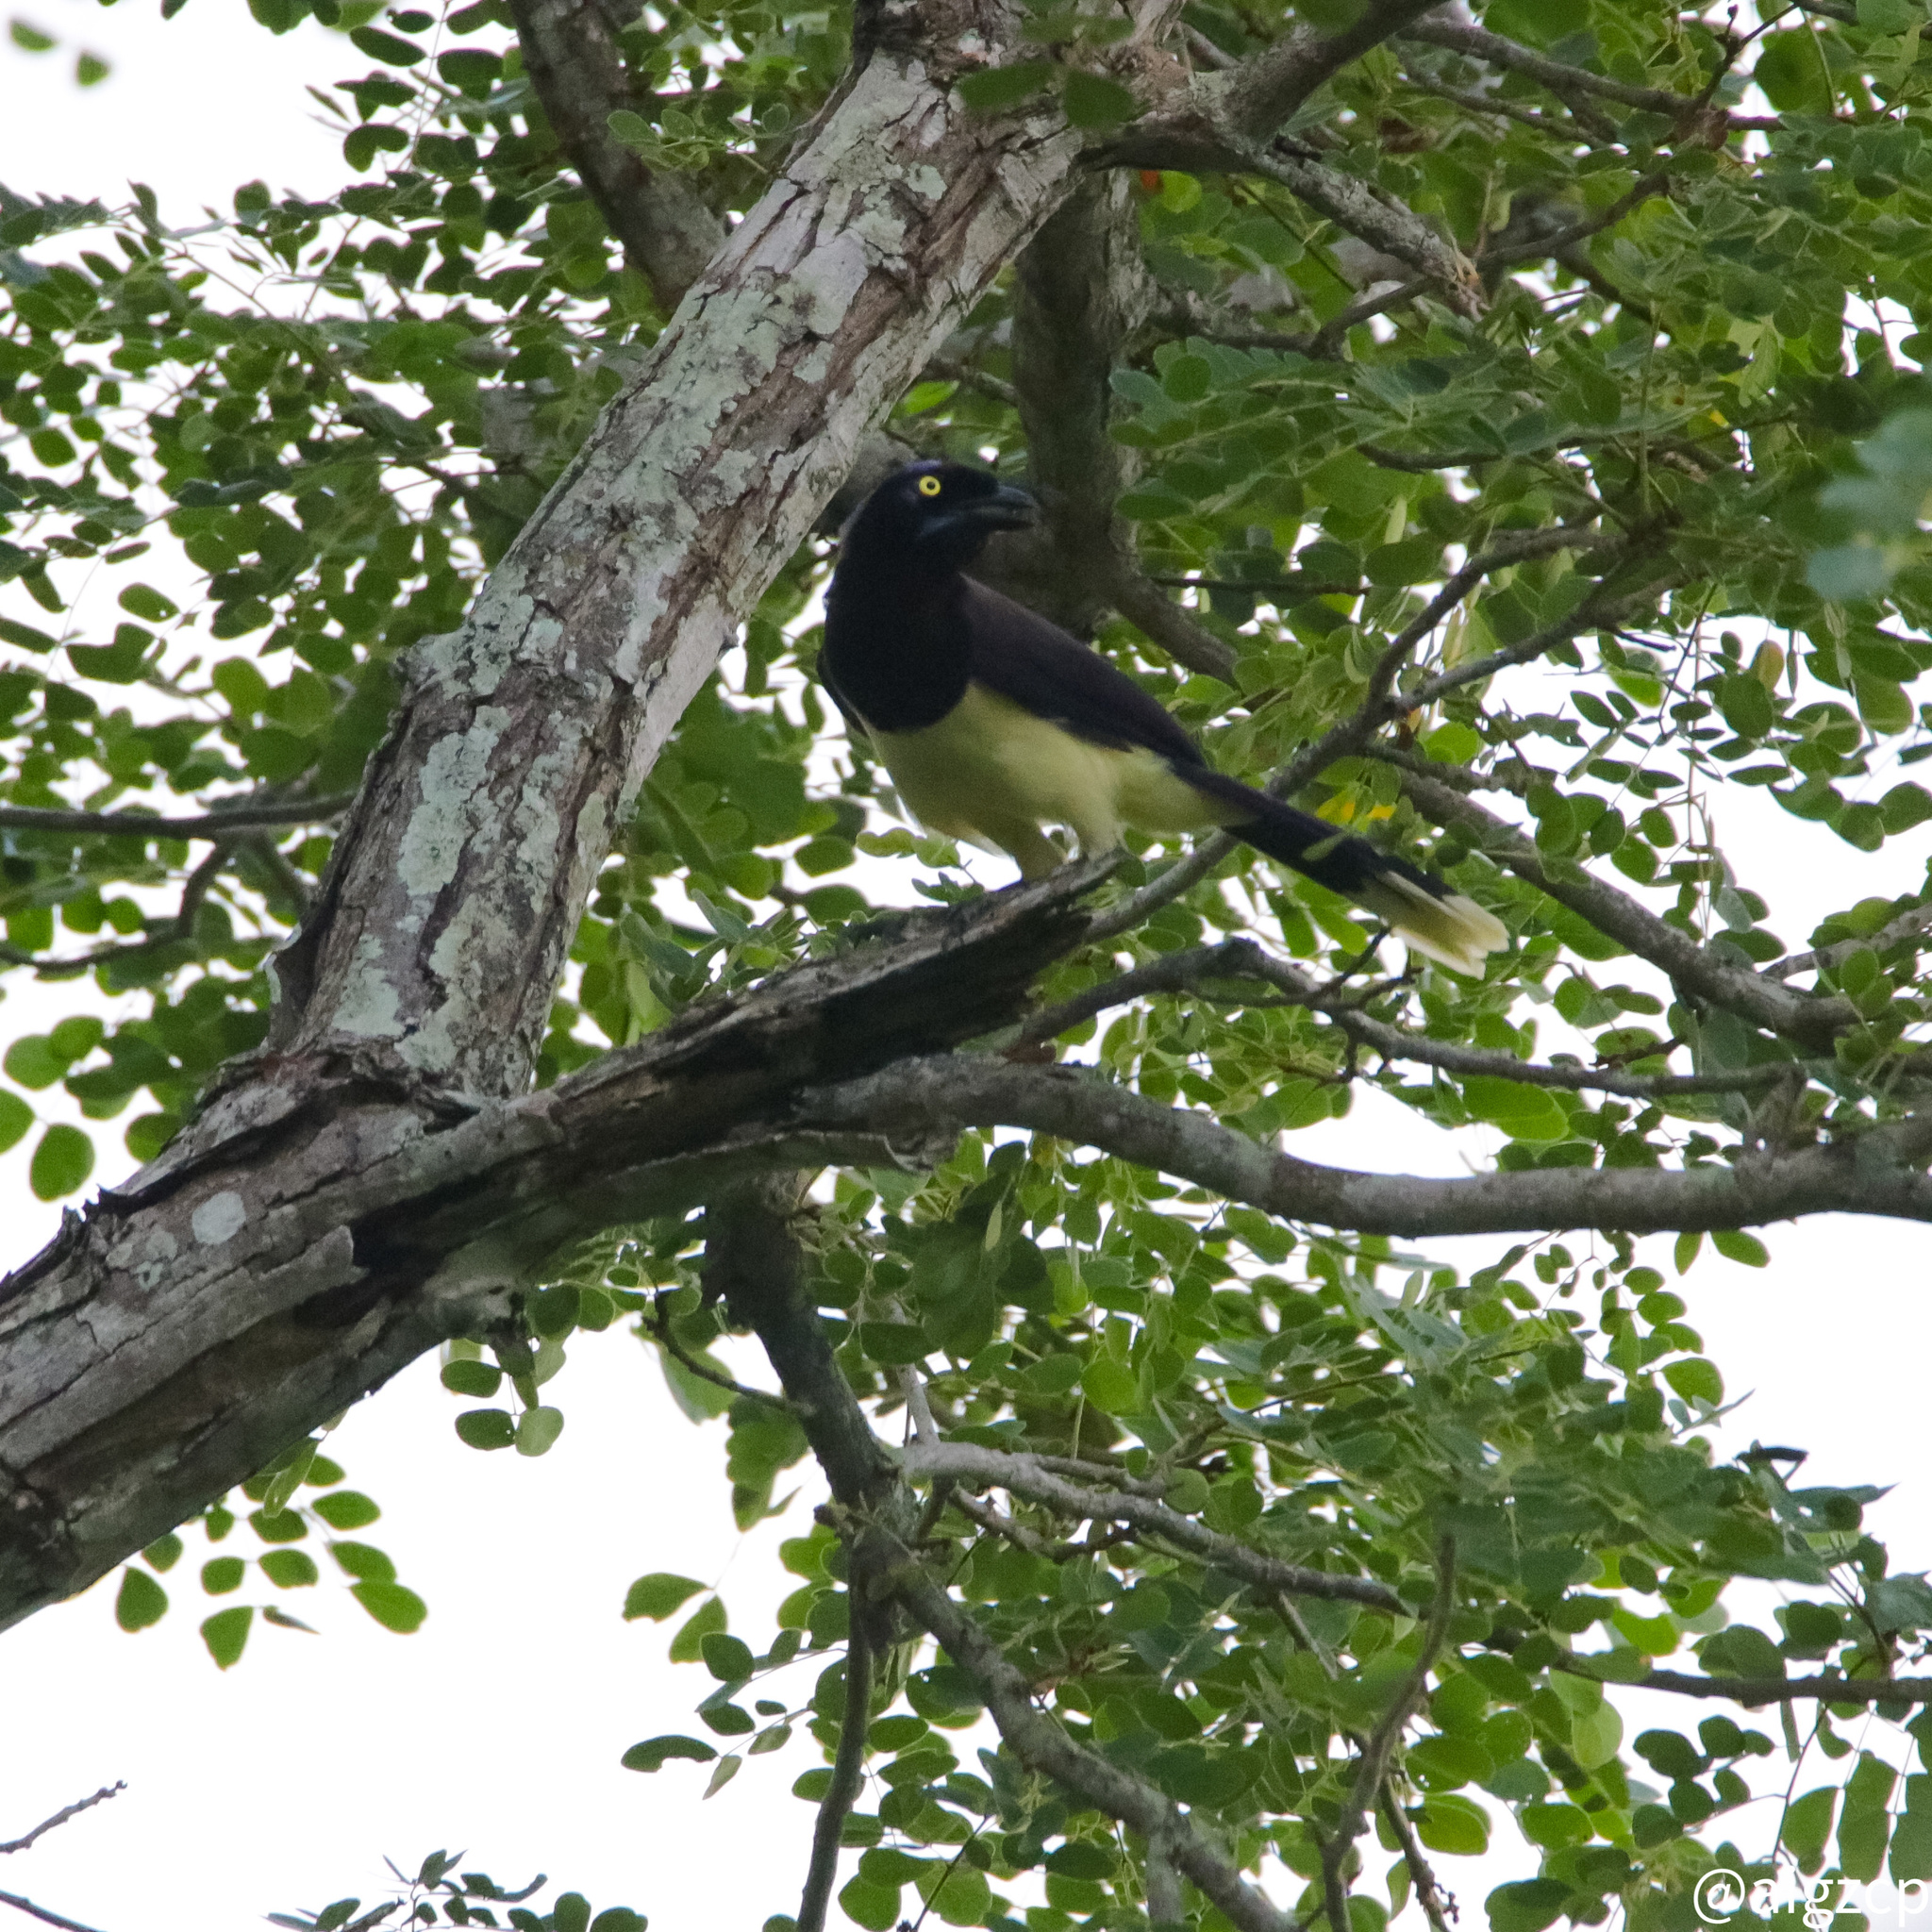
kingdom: Animalia
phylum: Chordata
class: Aves
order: Passeriformes
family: Corvidae
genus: Cyanocorax
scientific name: Cyanocorax affinis
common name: Black-chested jay
